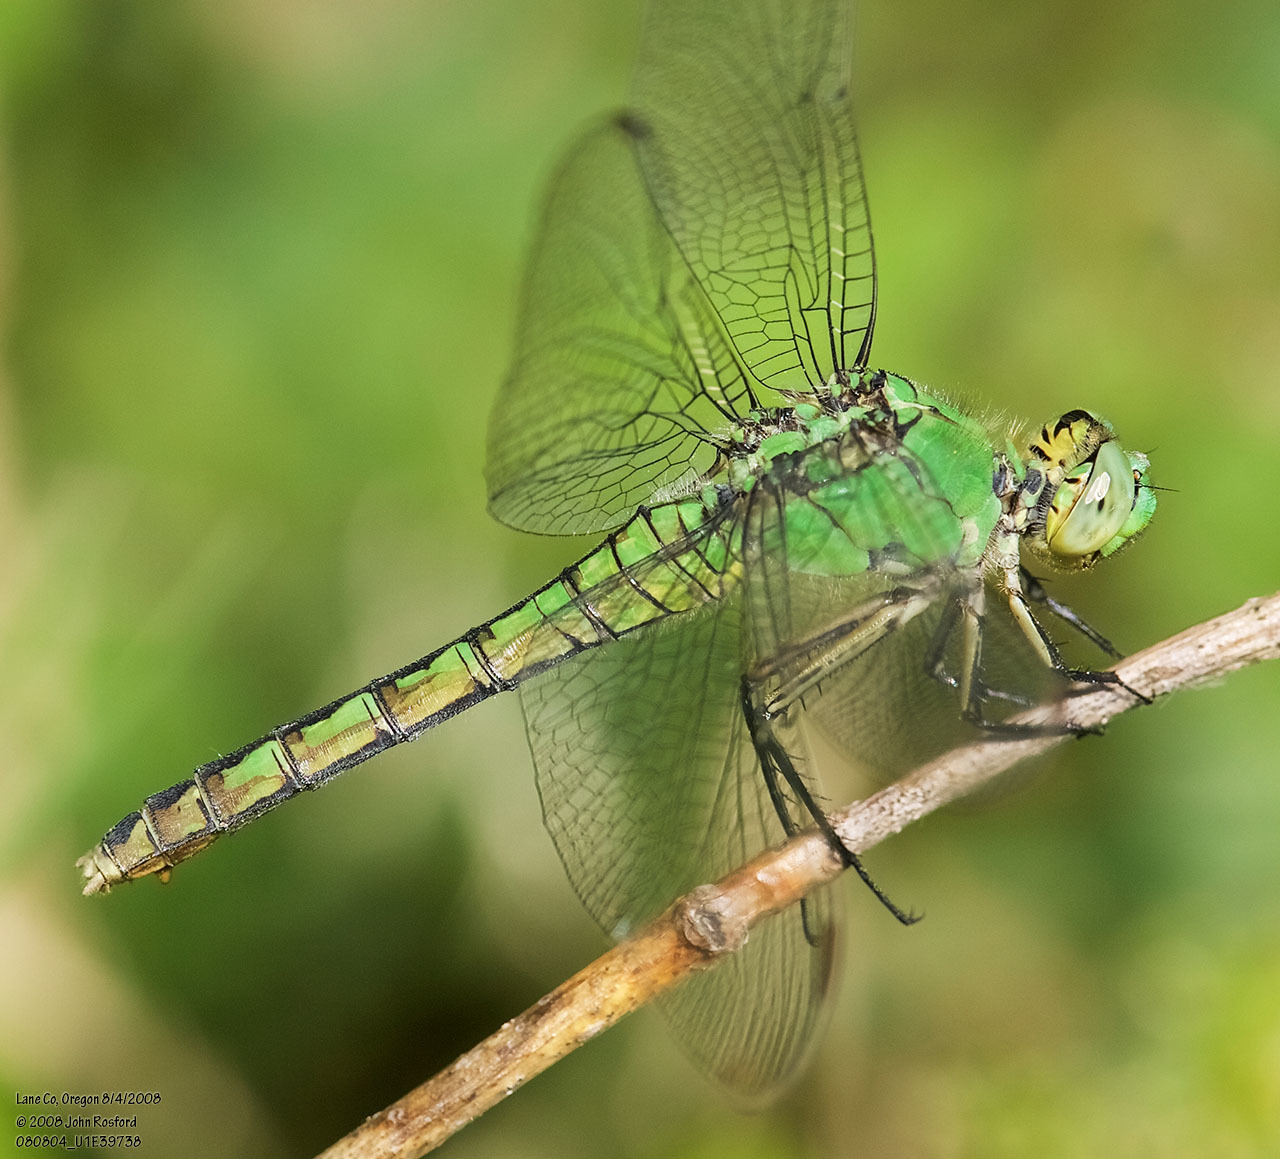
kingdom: Animalia
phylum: Arthropoda
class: Insecta
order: Odonata
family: Libellulidae
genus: Erythemis
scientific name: Erythemis collocata
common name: Western pondhawk
